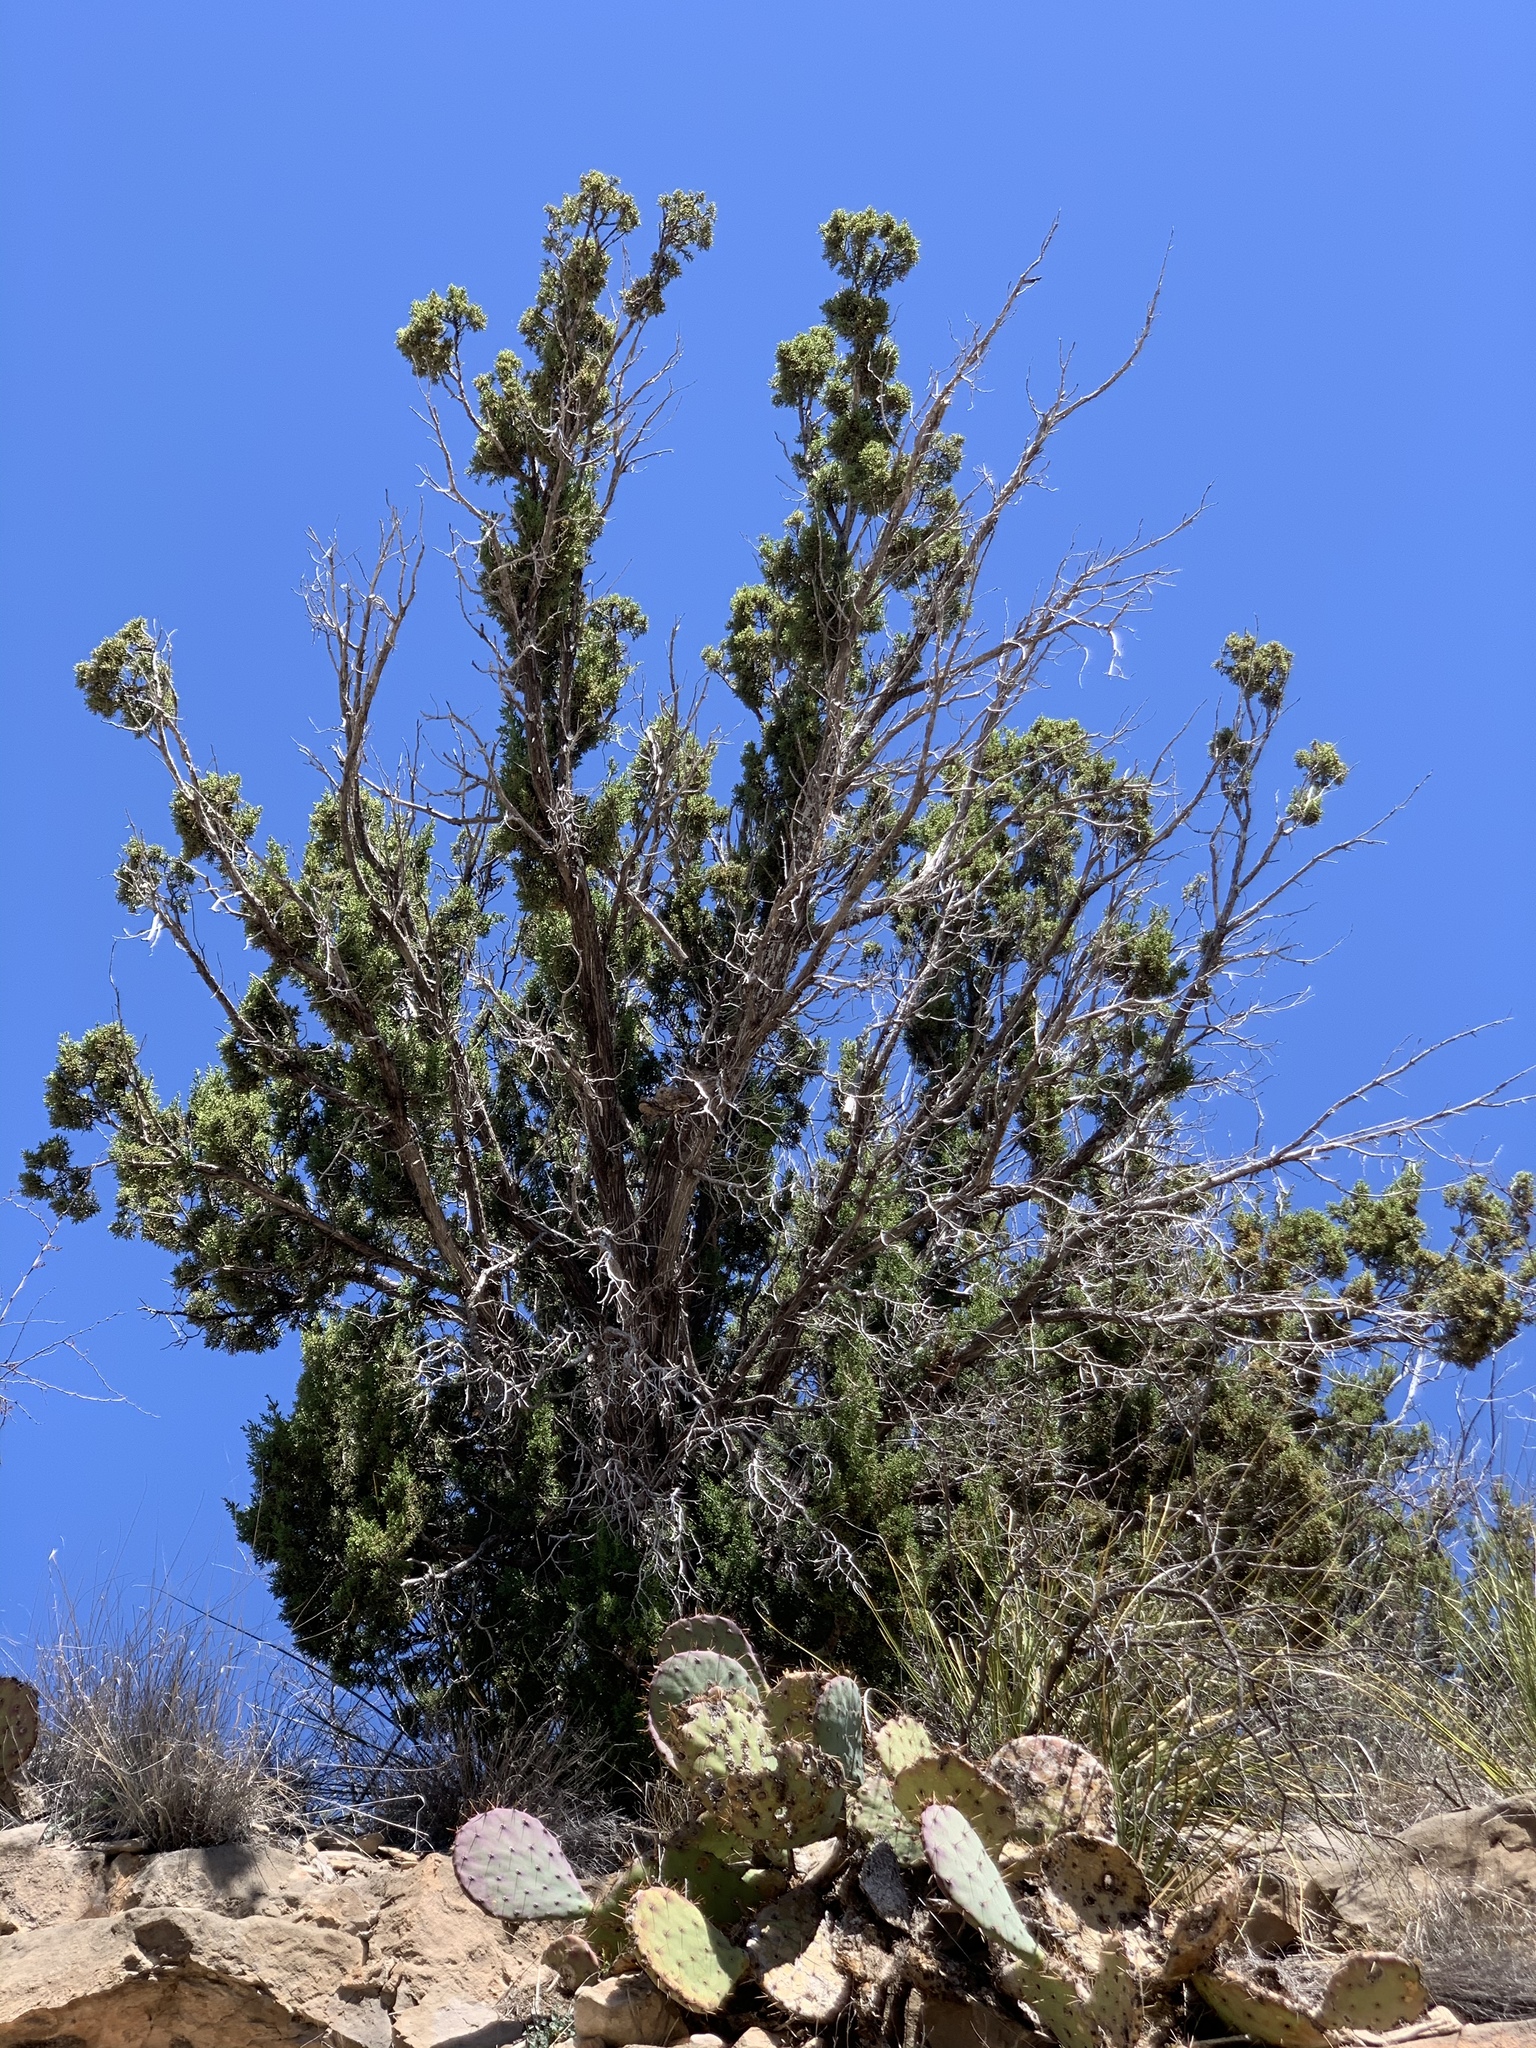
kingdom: Plantae
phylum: Tracheophyta
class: Pinopsida
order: Pinales
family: Cupressaceae
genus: Juniperus
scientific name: Juniperus monosperma
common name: One-seed juniper
